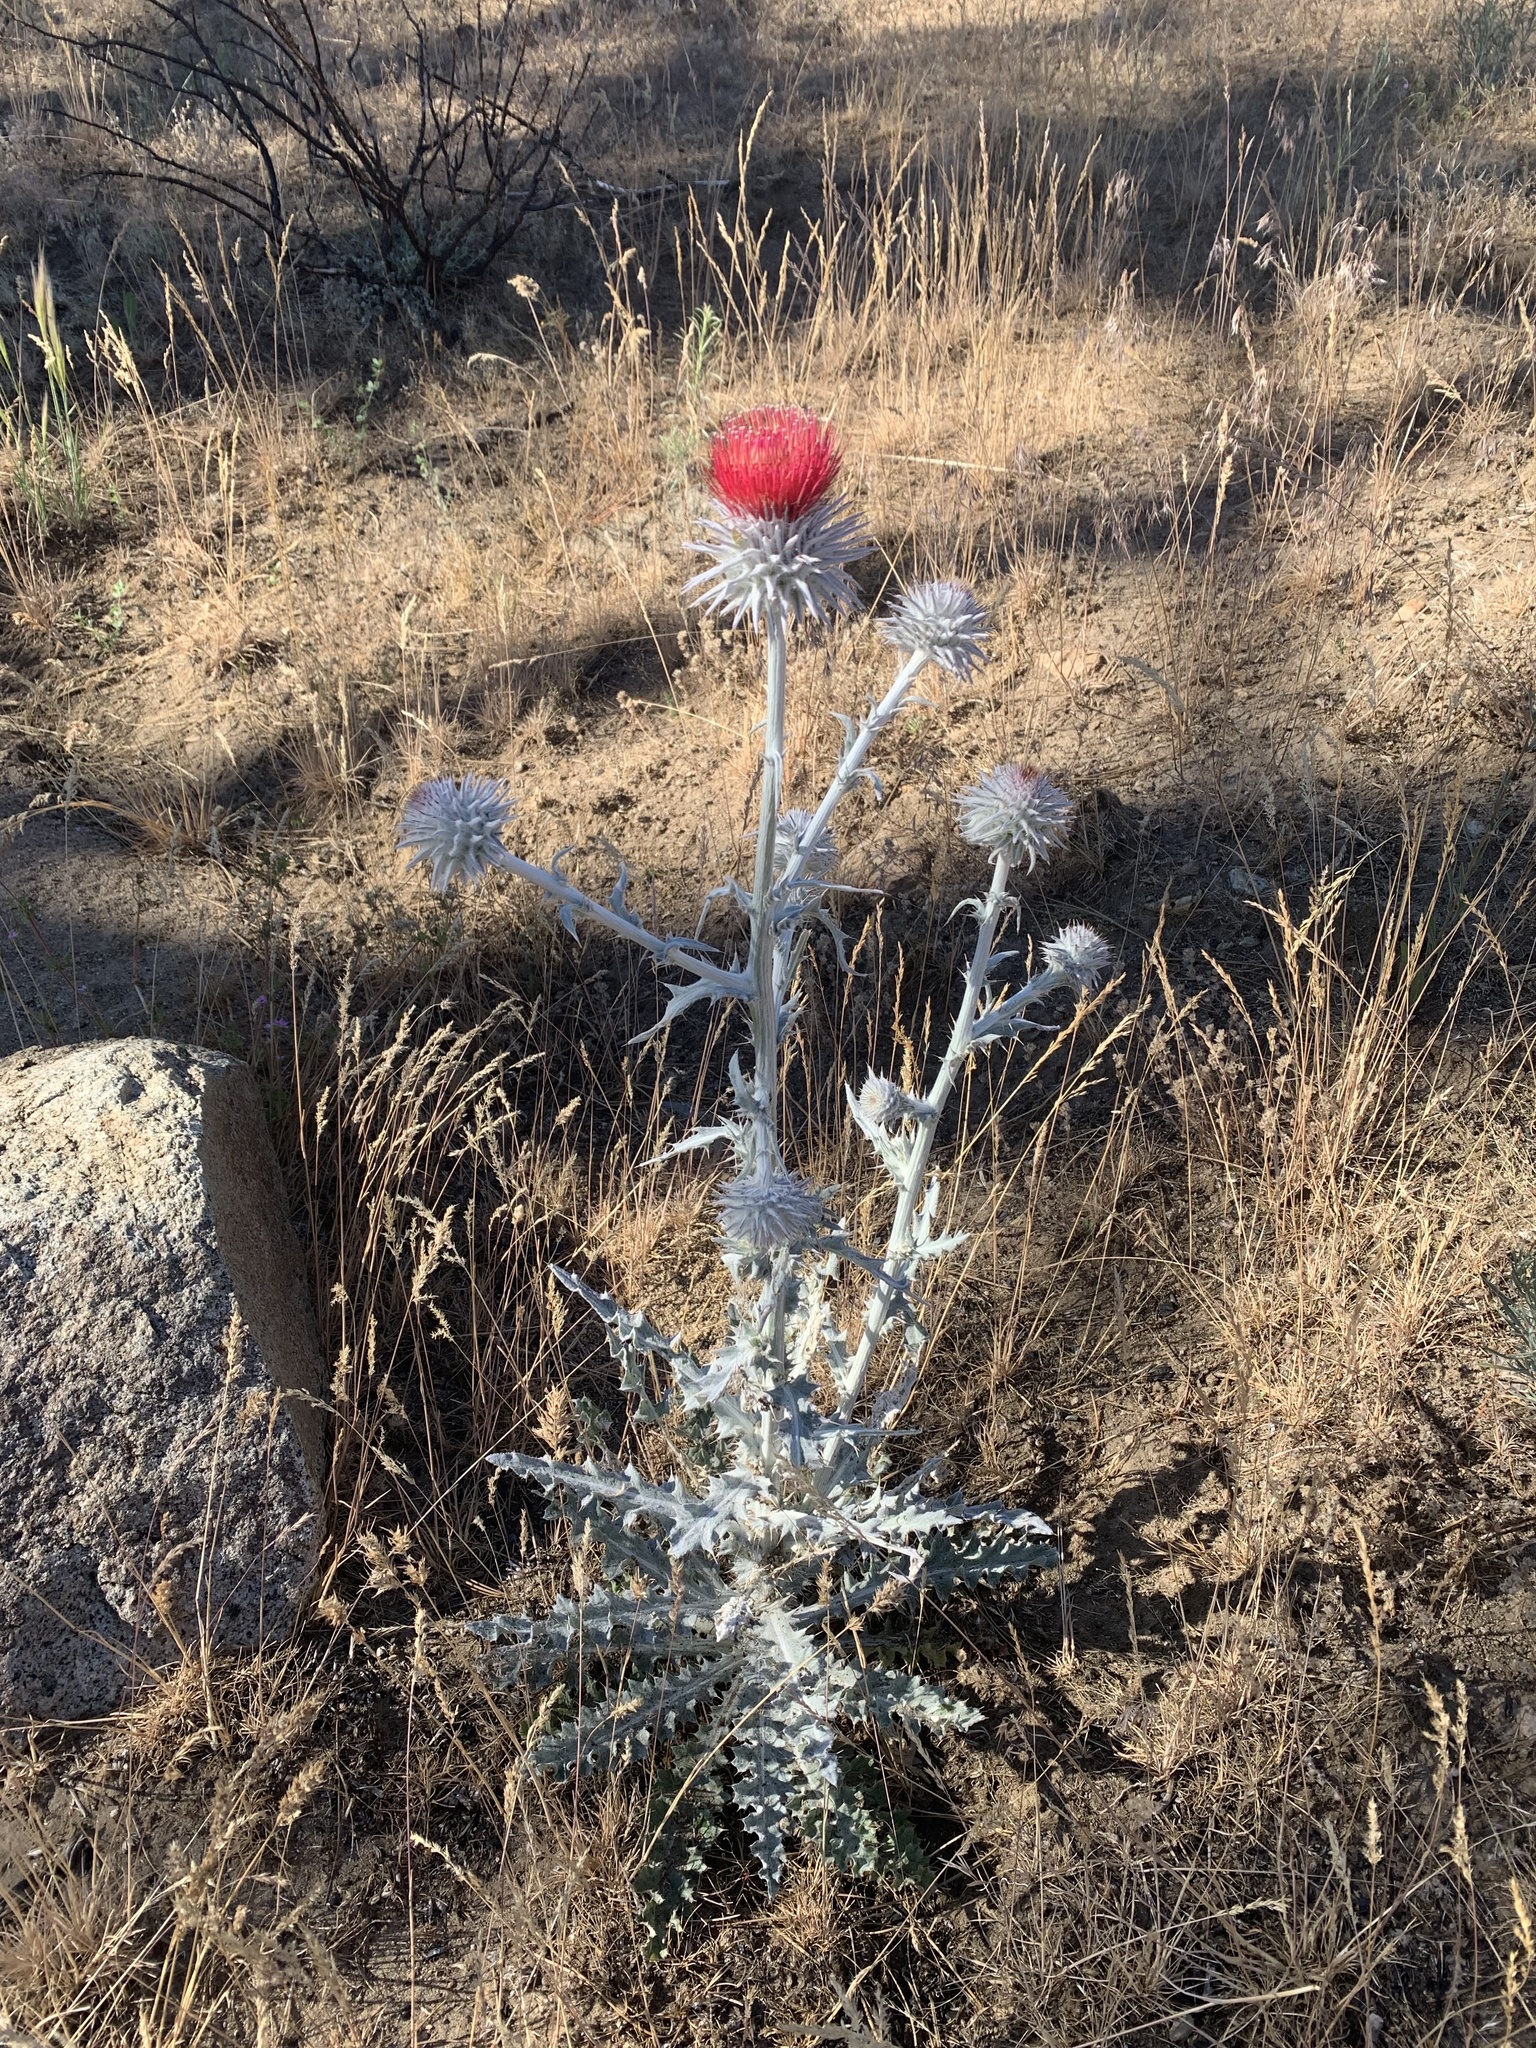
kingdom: Plantae
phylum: Tracheophyta
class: Magnoliopsida
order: Asterales
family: Asteraceae
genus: Cirsium
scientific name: Cirsium occidentale
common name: Western thistle
